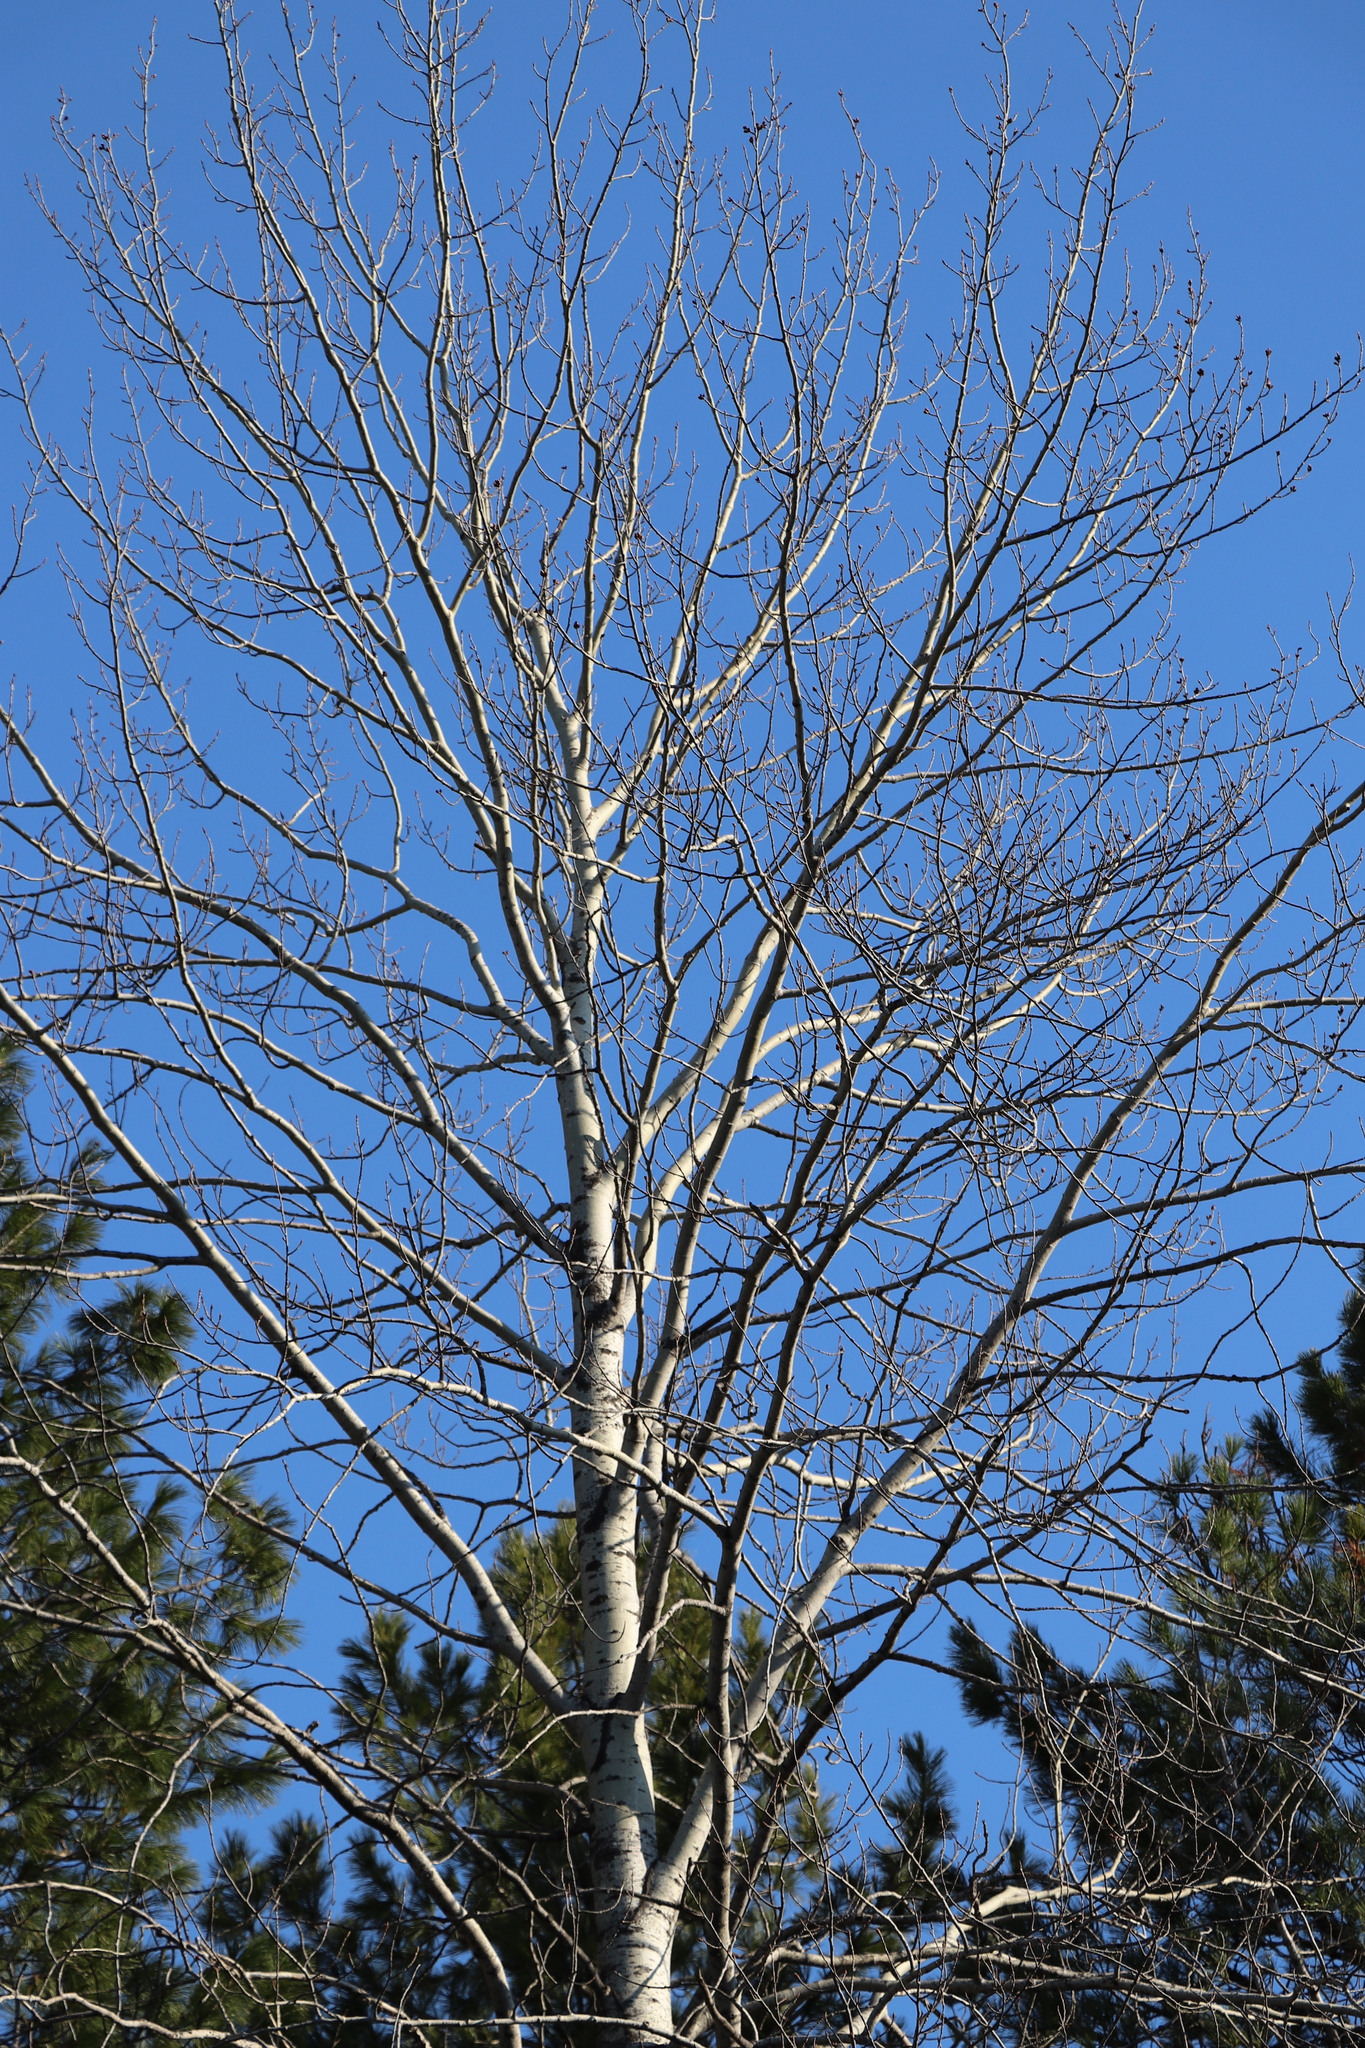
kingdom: Plantae
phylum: Tracheophyta
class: Magnoliopsida
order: Malpighiales
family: Salicaceae
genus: Populus
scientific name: Populus tremula
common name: European aspen
